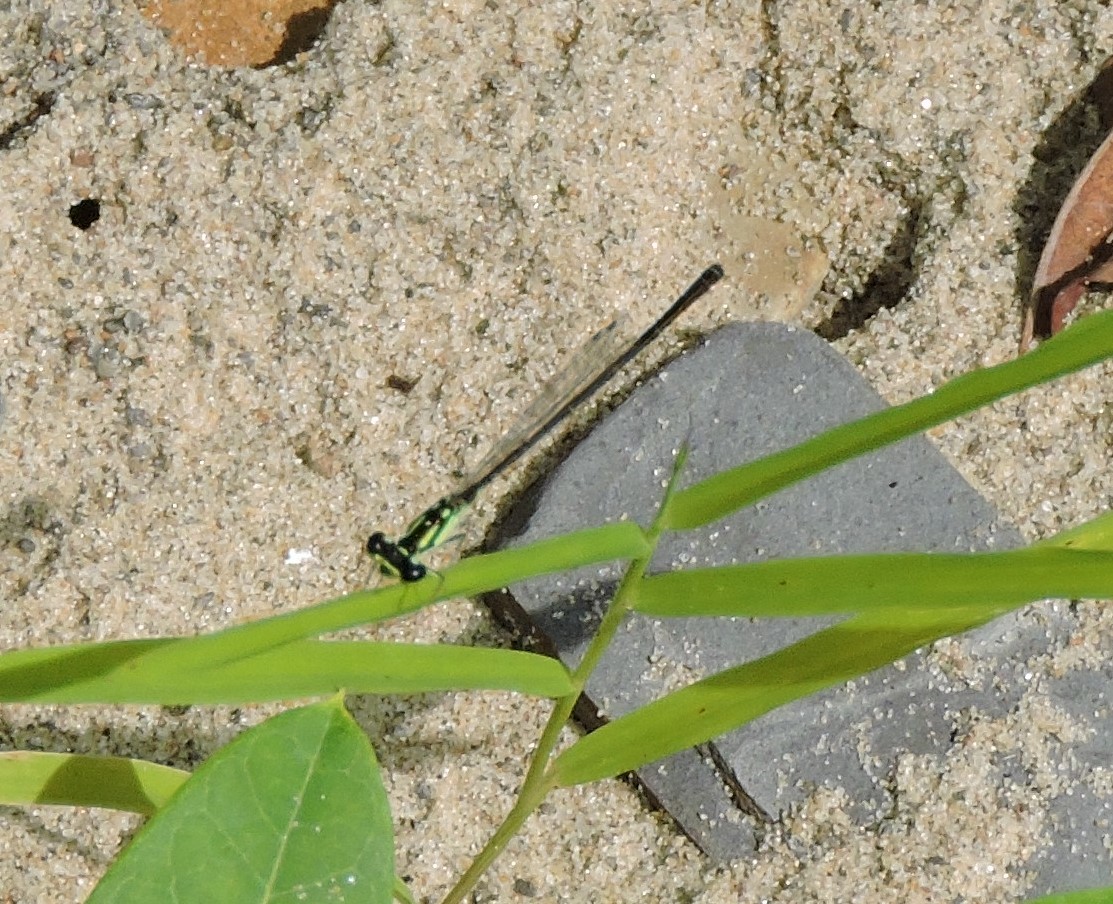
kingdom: Animalia
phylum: Arthropoda
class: Insecta
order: Odonata
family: Coenagrionidae
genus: Ischnura
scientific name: Ischnura posita
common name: Fragile forktail
